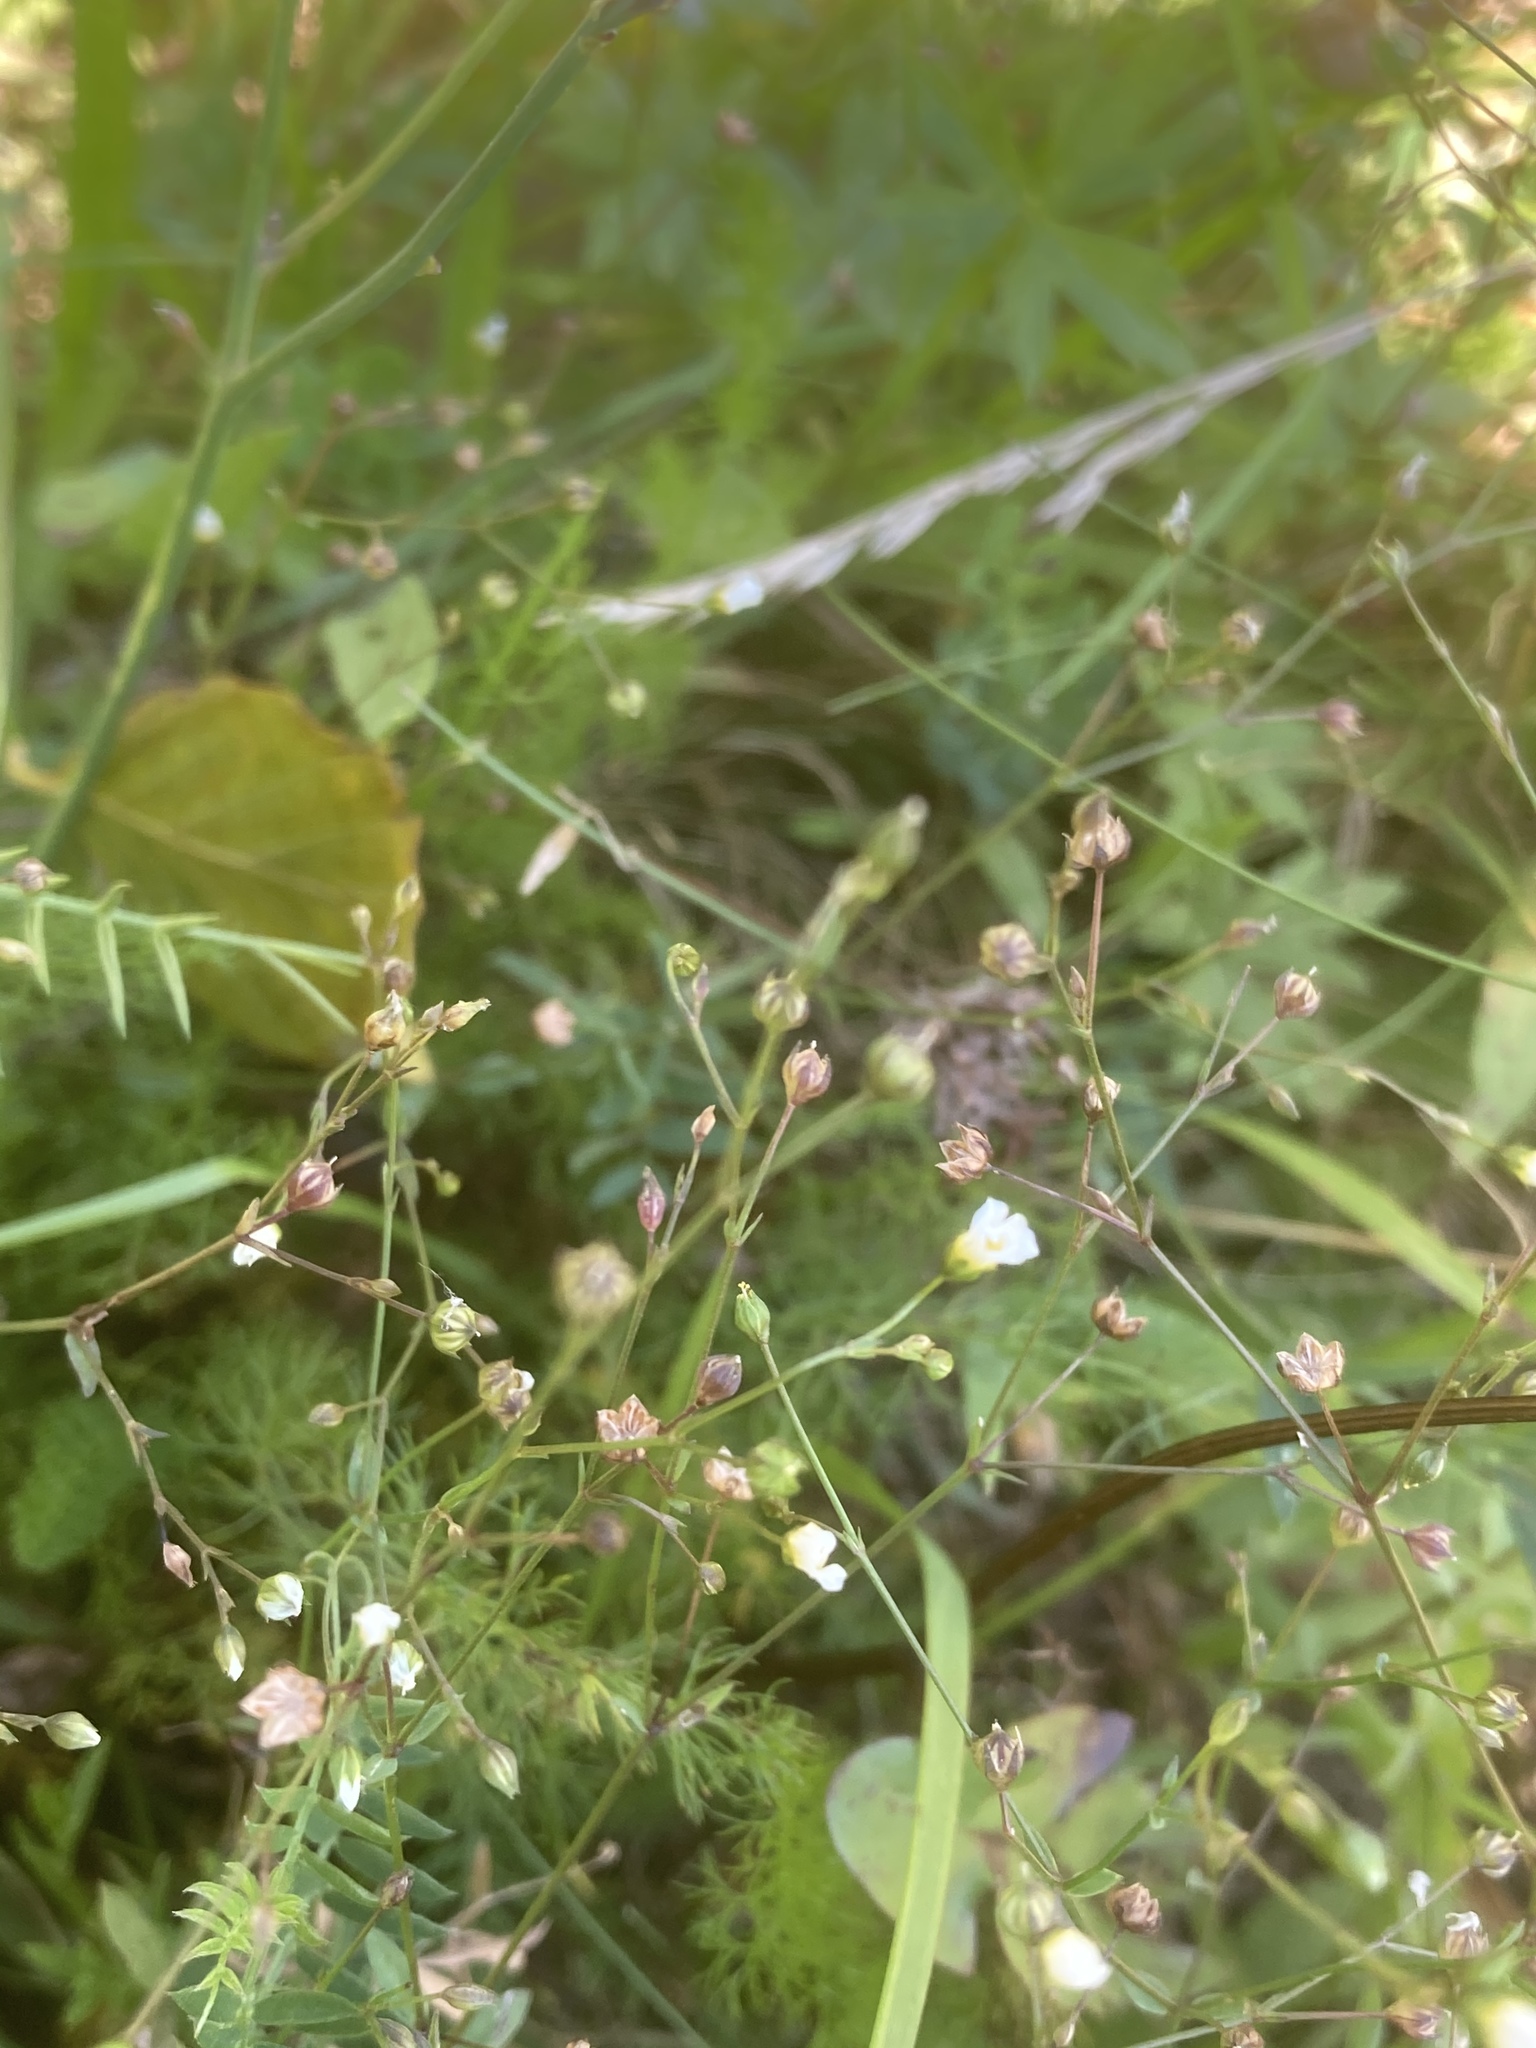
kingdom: Plantae
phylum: Tracheophyta
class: Magnoliopsida
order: Malpighiales
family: Linaceae
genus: Linum
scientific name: Linum catharticum
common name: Fairy flax
